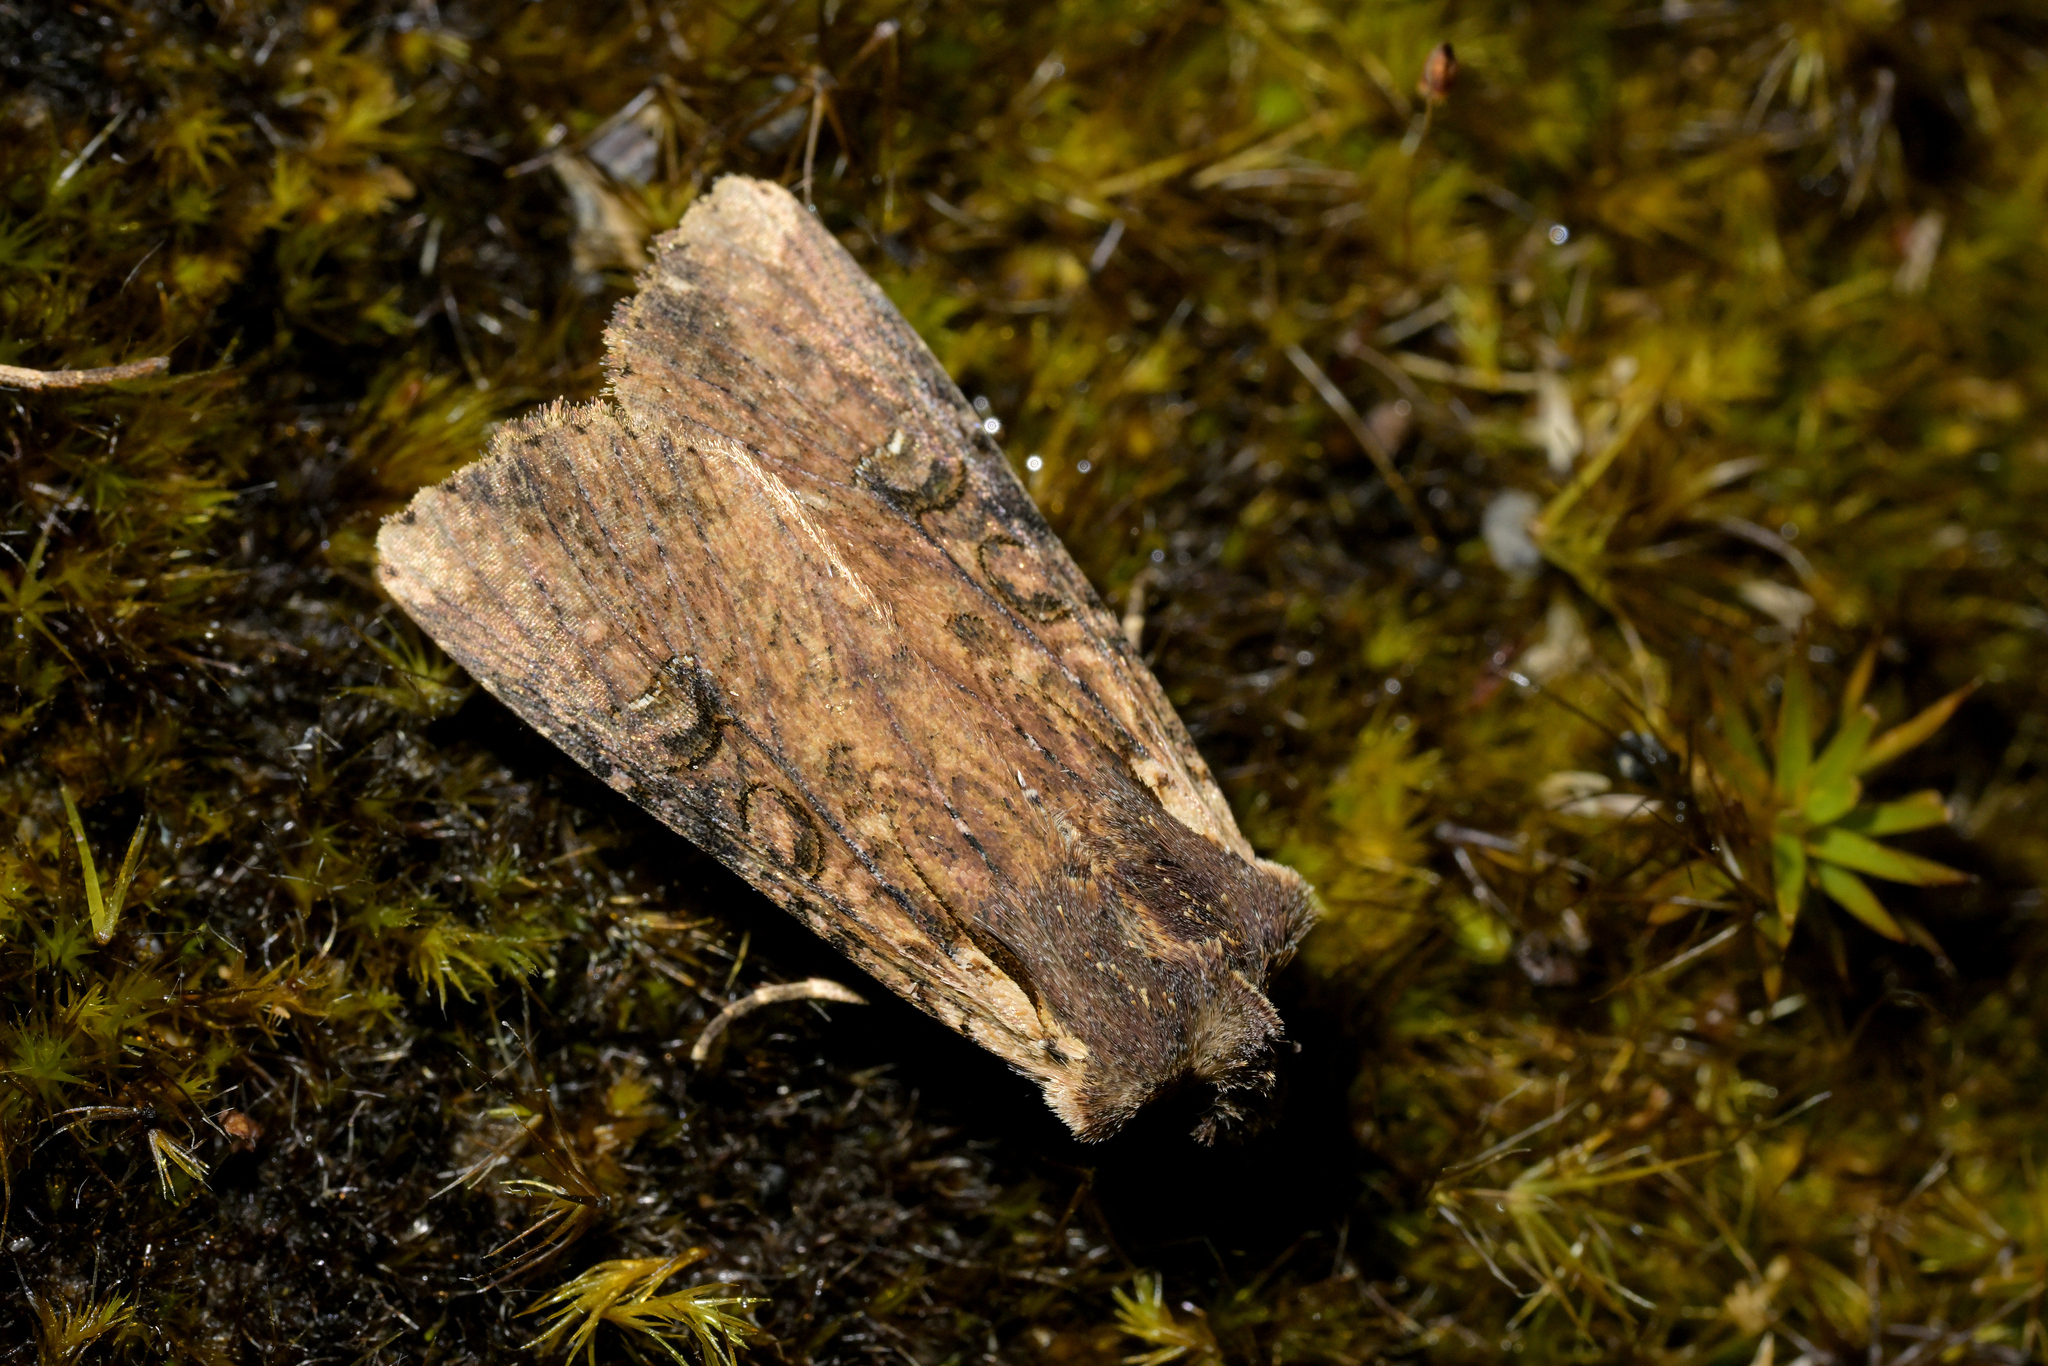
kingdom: Animalia
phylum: Arthropoda
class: Insecta
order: Lepidoptera
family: Noctuidae
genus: Ichneutica
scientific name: Ichneutica omoplaca
